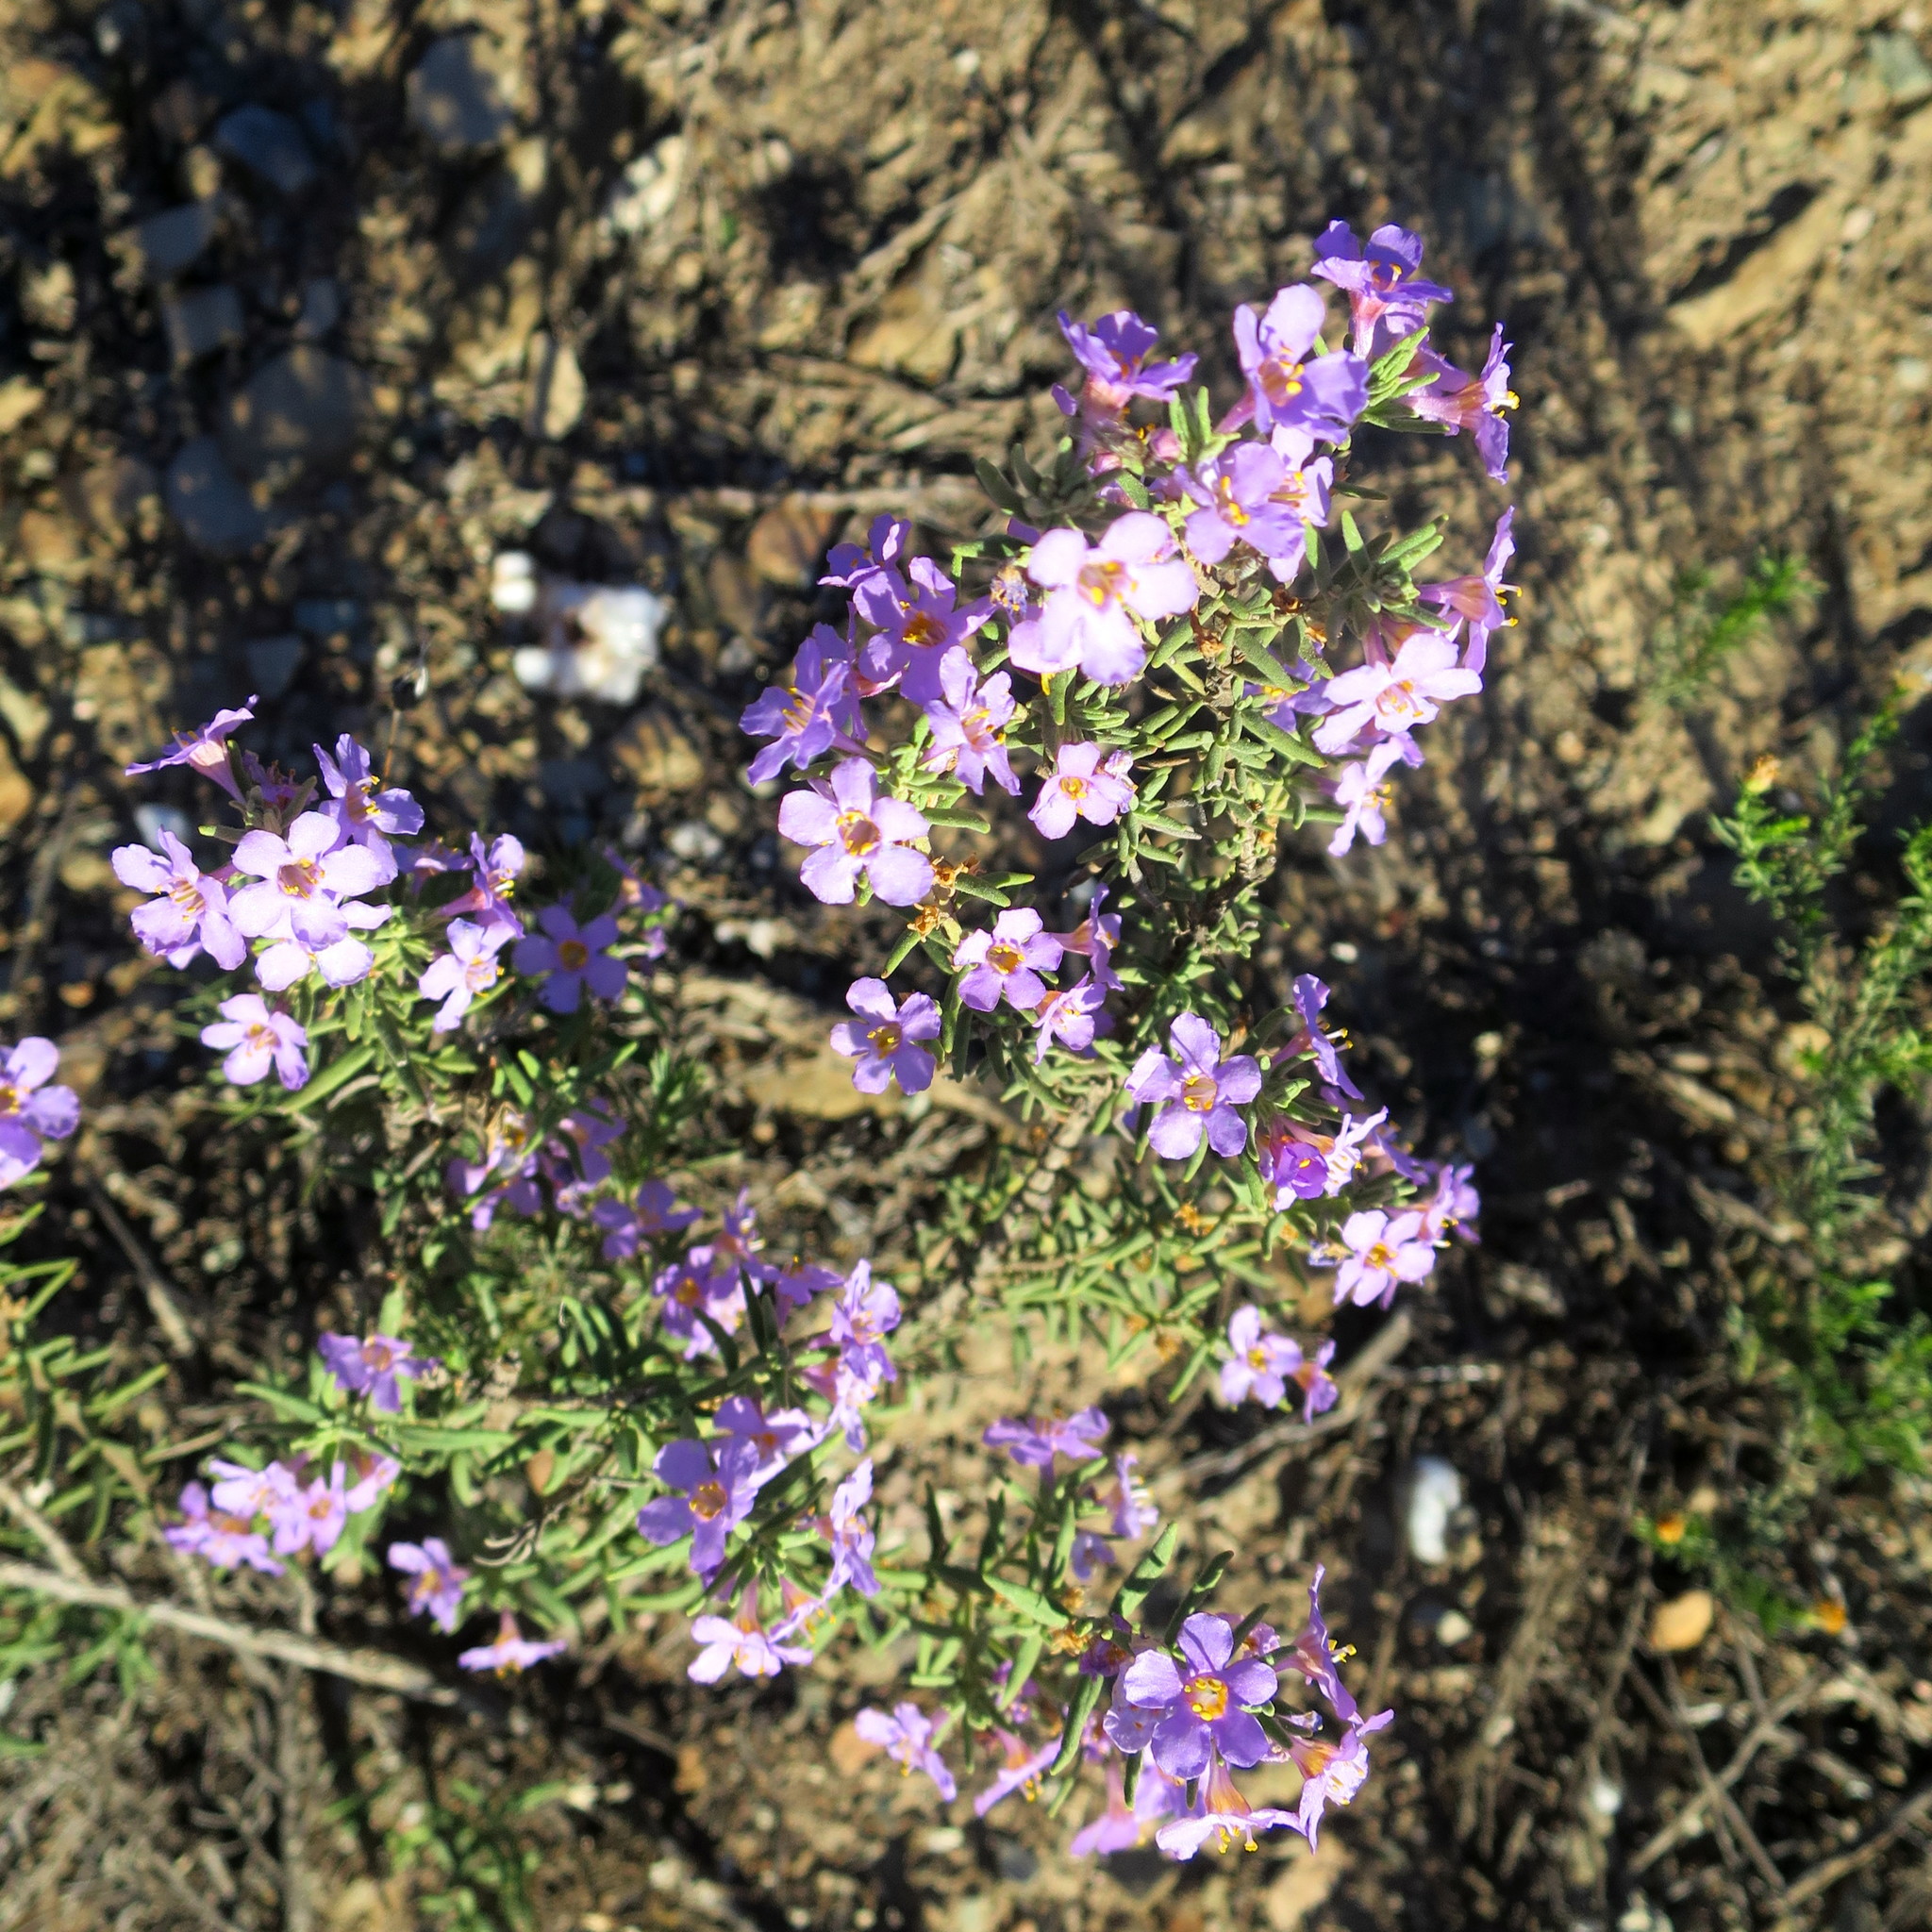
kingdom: Plantae
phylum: Tracheophyta
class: Magnoliopsida
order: Lamiales
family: Scrophulariaceae
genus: Chaenostoma
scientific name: Chaenostoma revolutum
